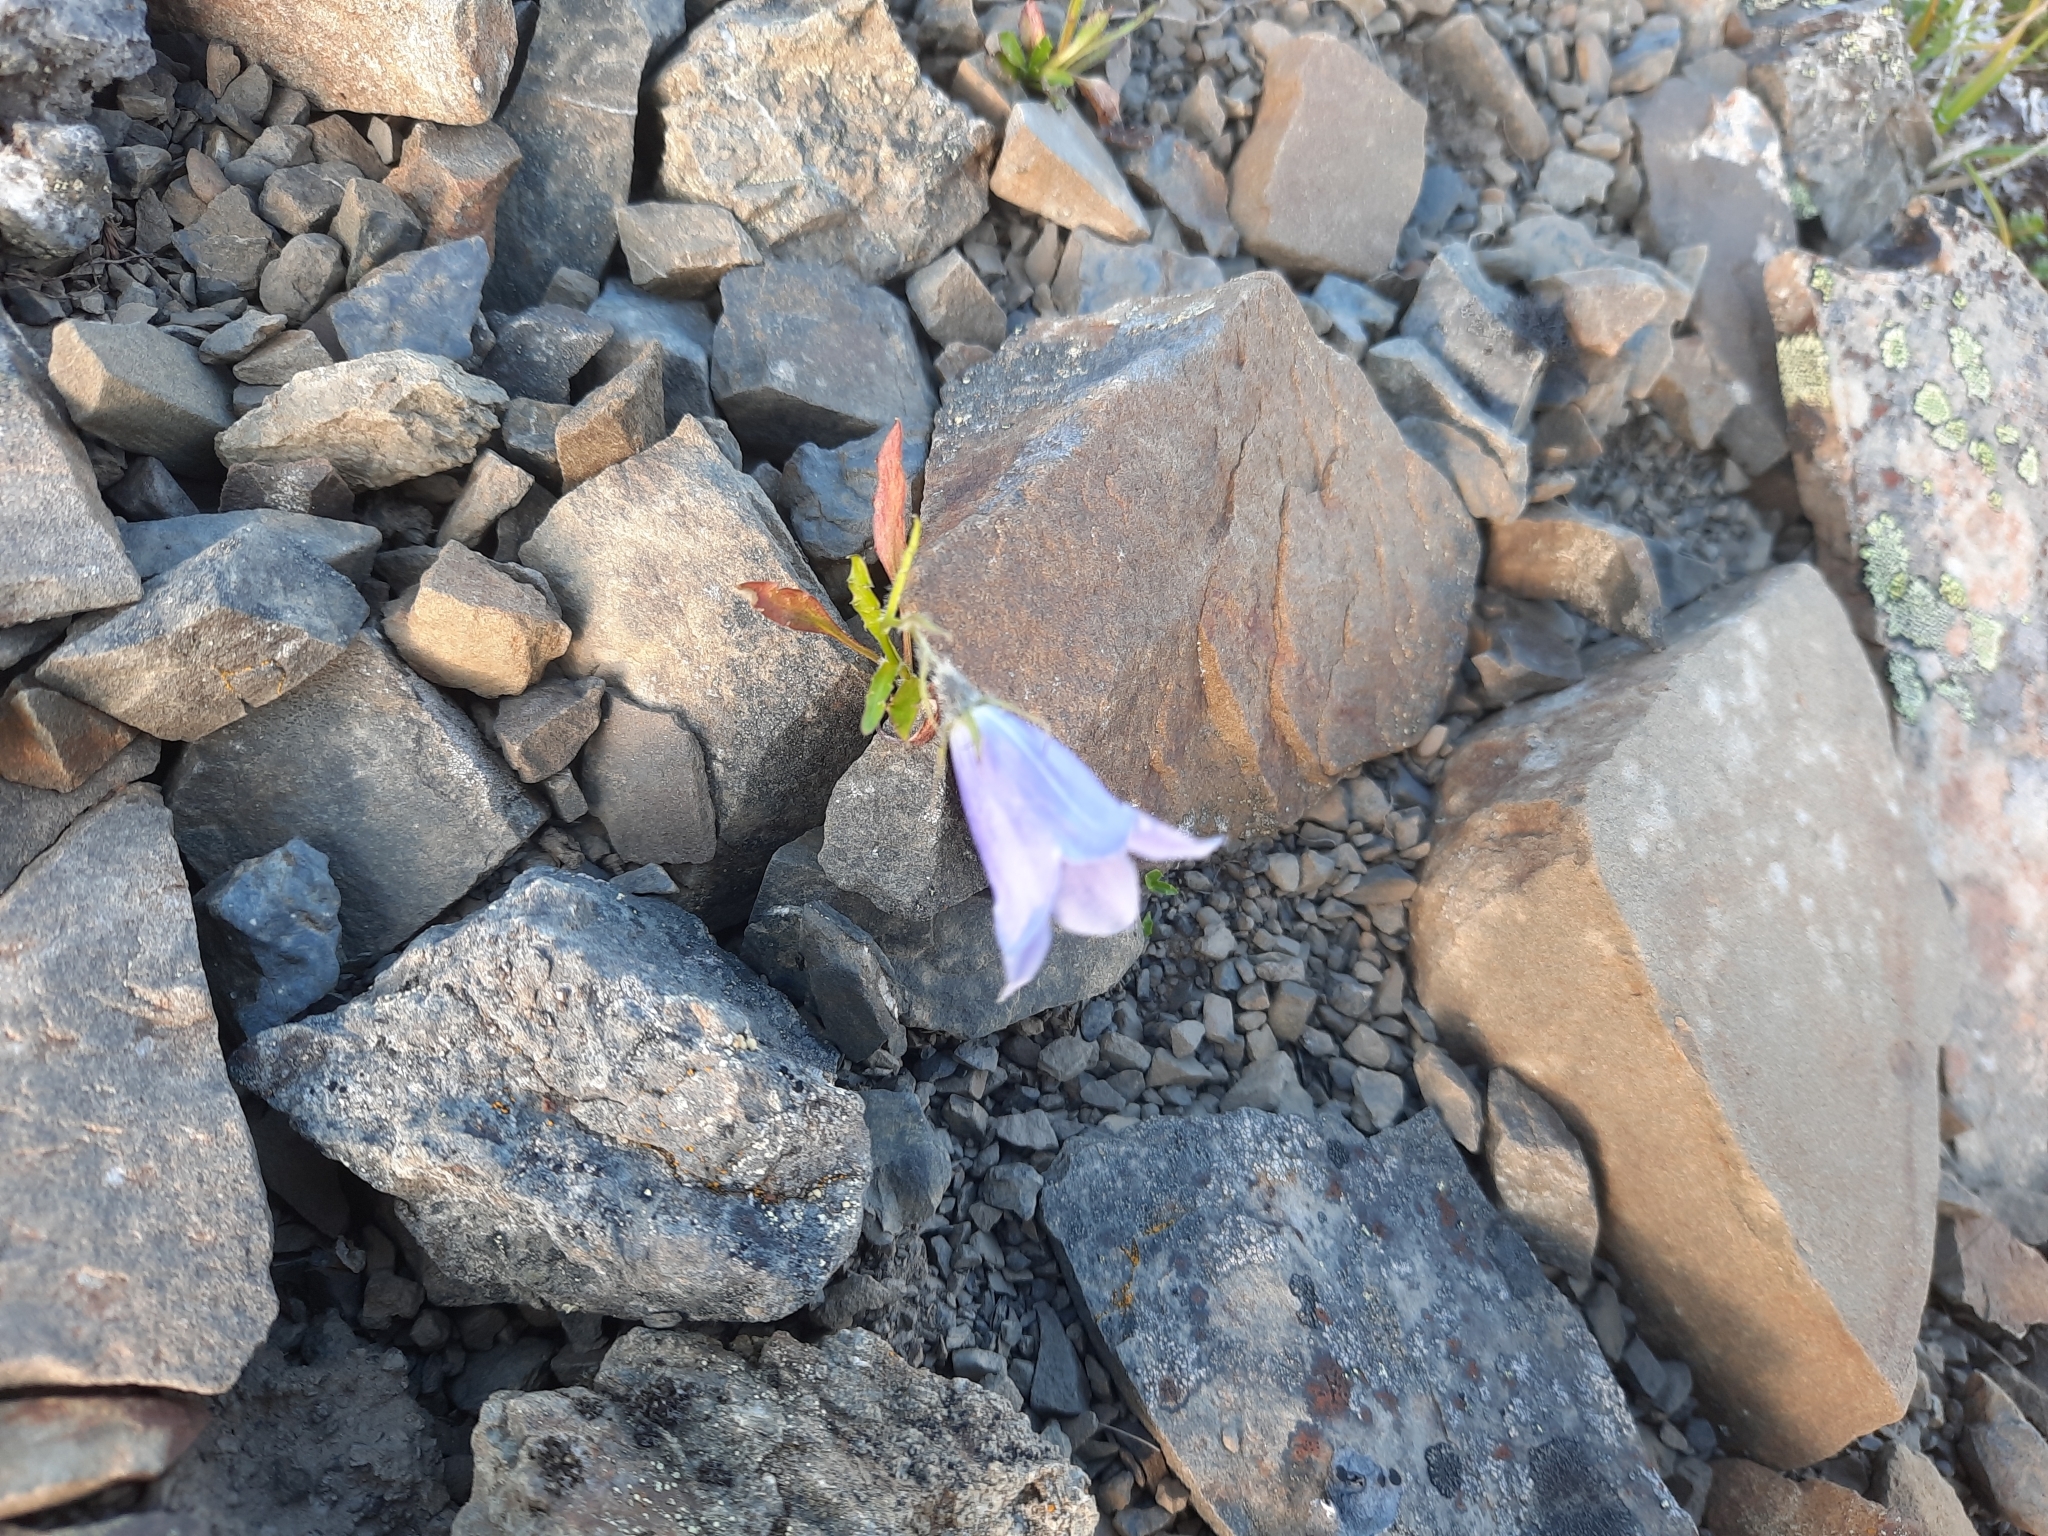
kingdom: Plantae
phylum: Tracheophyta
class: Magnoliopsida
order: Asterales
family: Campanulaceae
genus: Campanula
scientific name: Campanula lasiocarpa
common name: Mountain harebell
